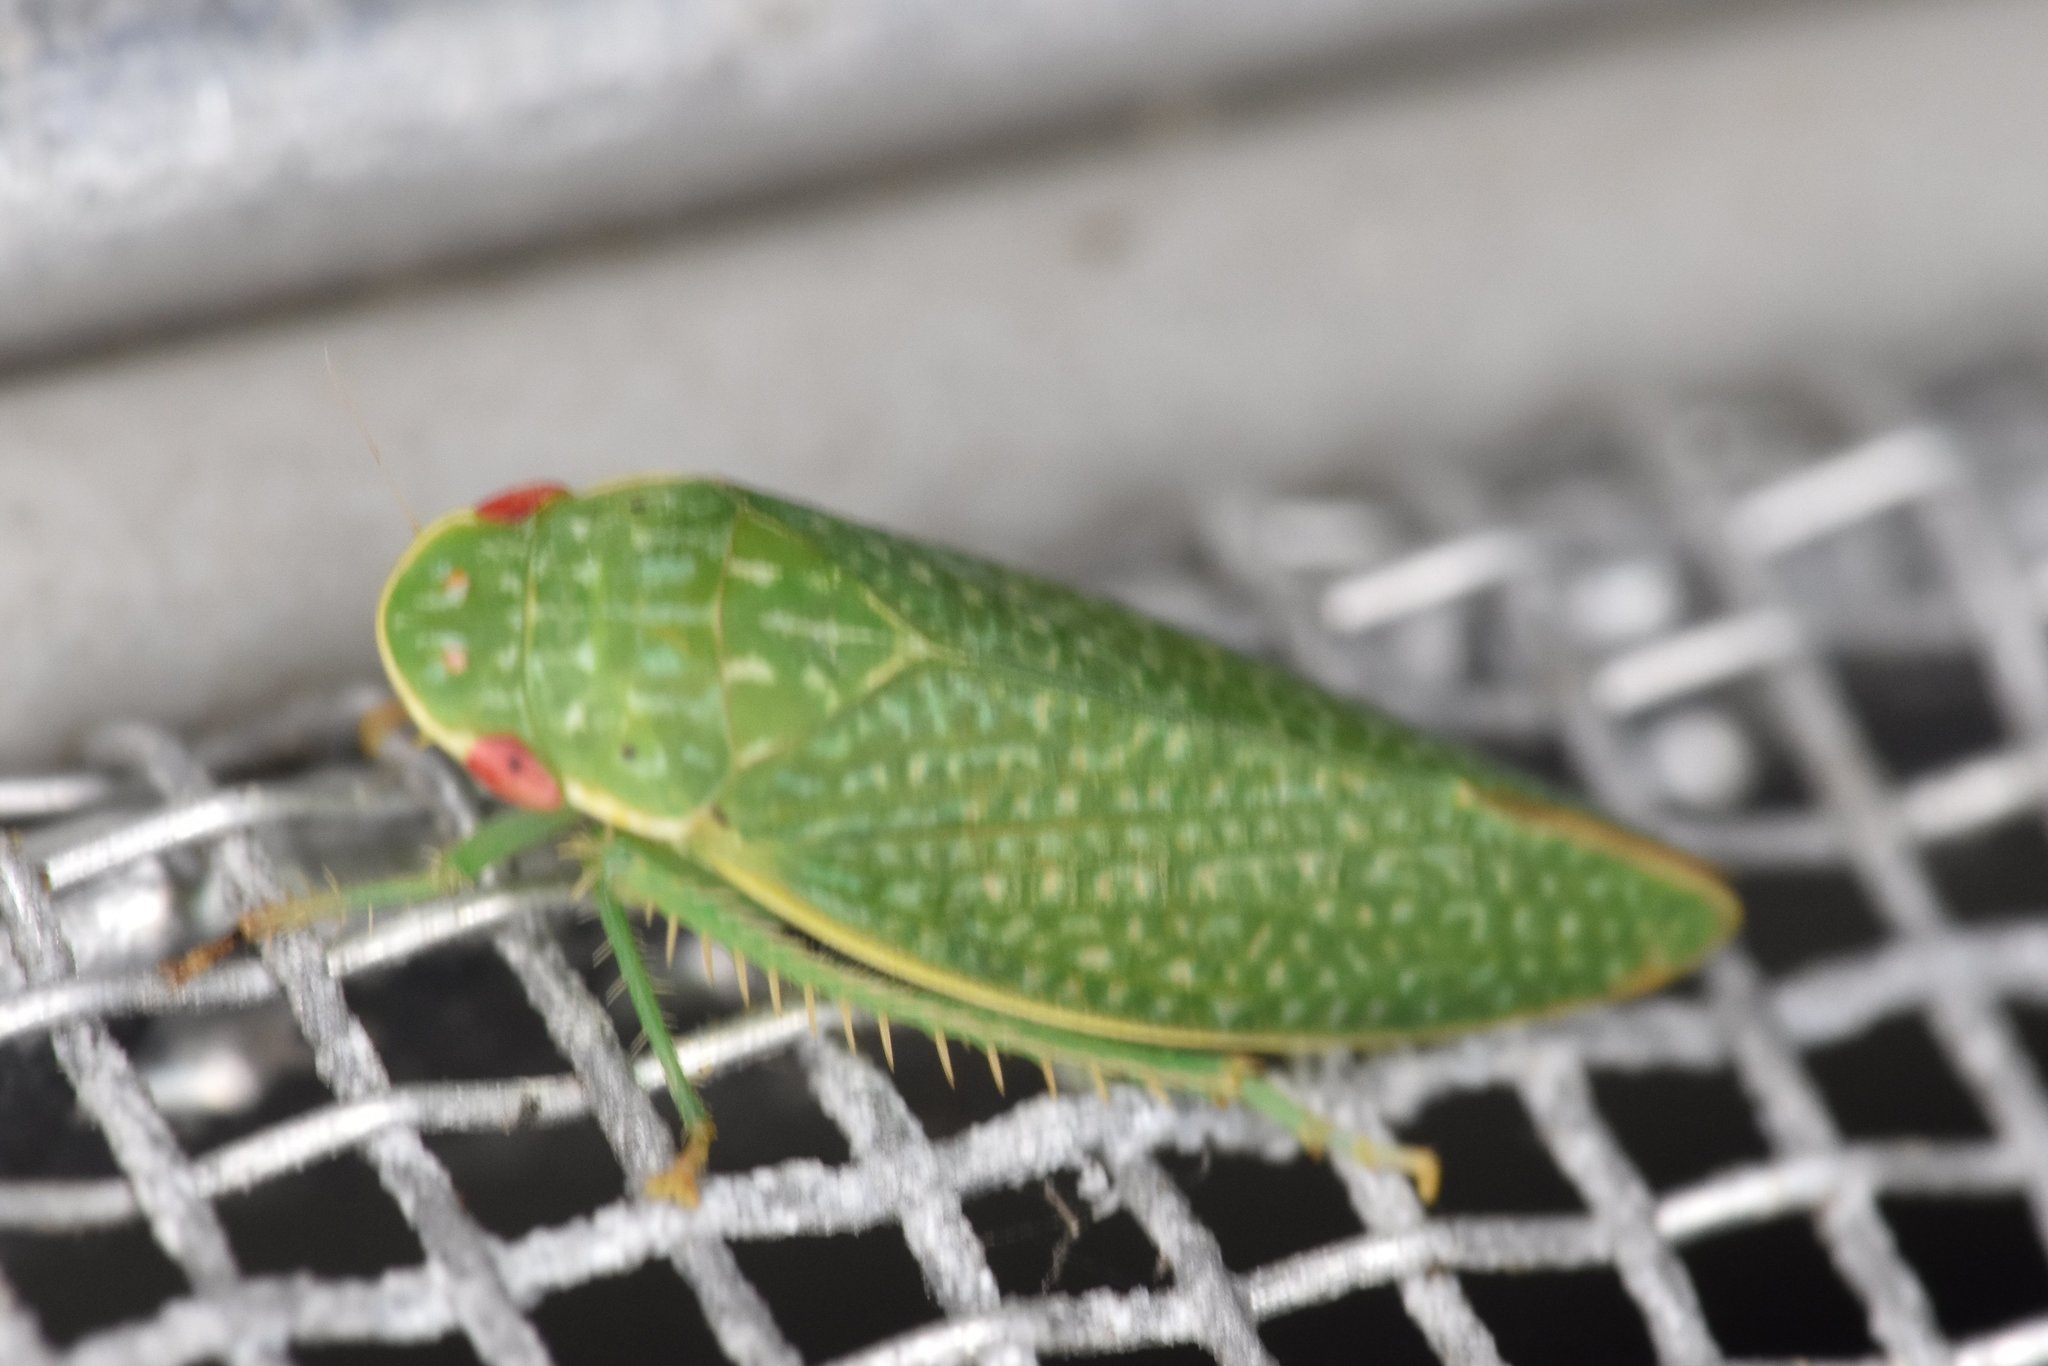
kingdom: Animalia
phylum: Arthropoda
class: Insecta
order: Hemiptera
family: Cicadellidae
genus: Rugosana
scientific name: Rugosana querci
